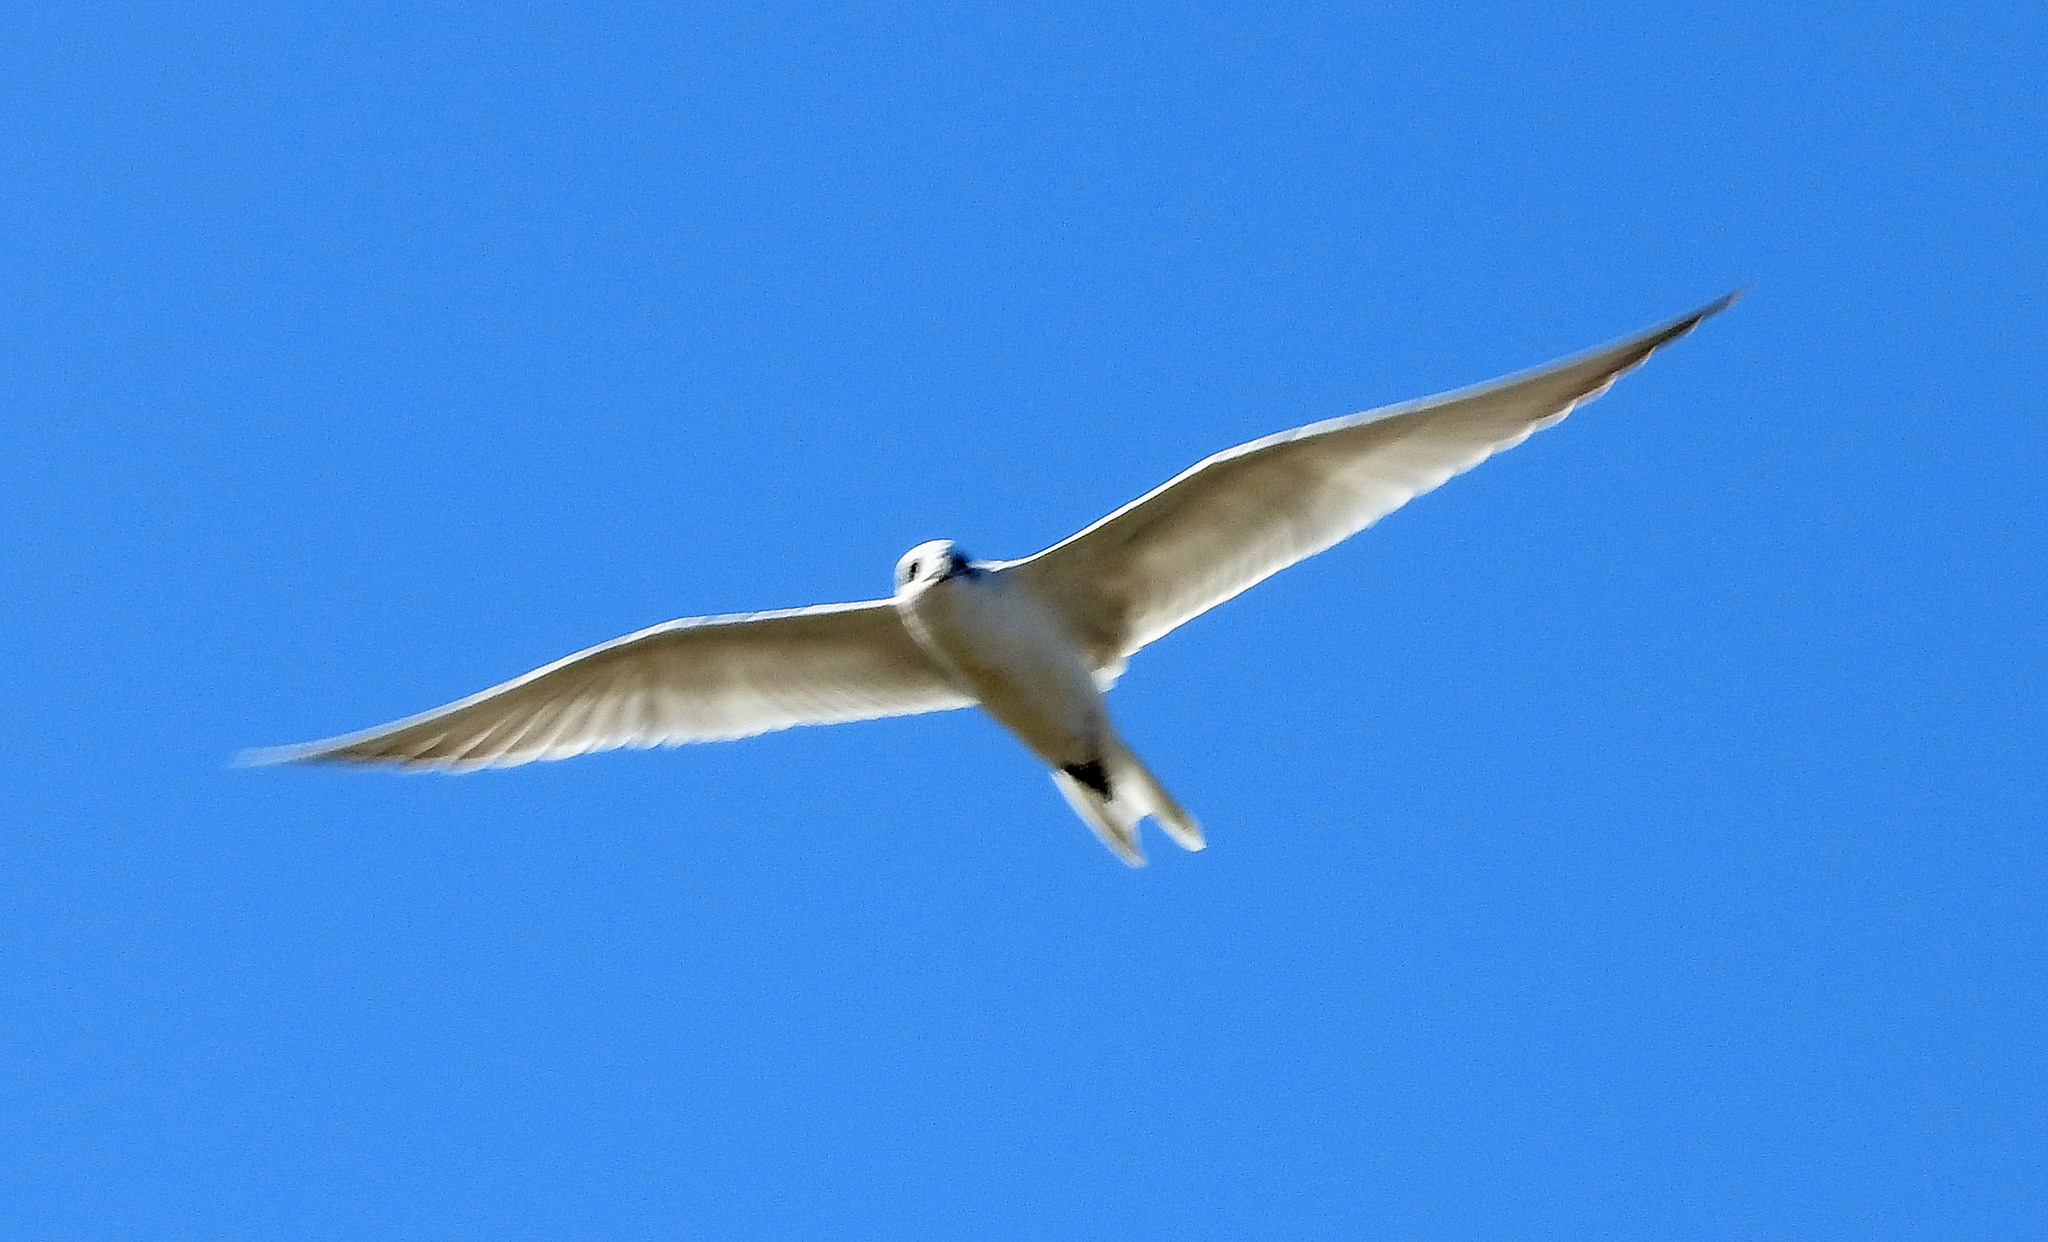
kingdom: Animalia
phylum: Chordata
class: Aves
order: Charadriiformes
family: Laridae
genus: Sterna
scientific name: Sterna trudeaui
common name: Snowy-crowned tern
